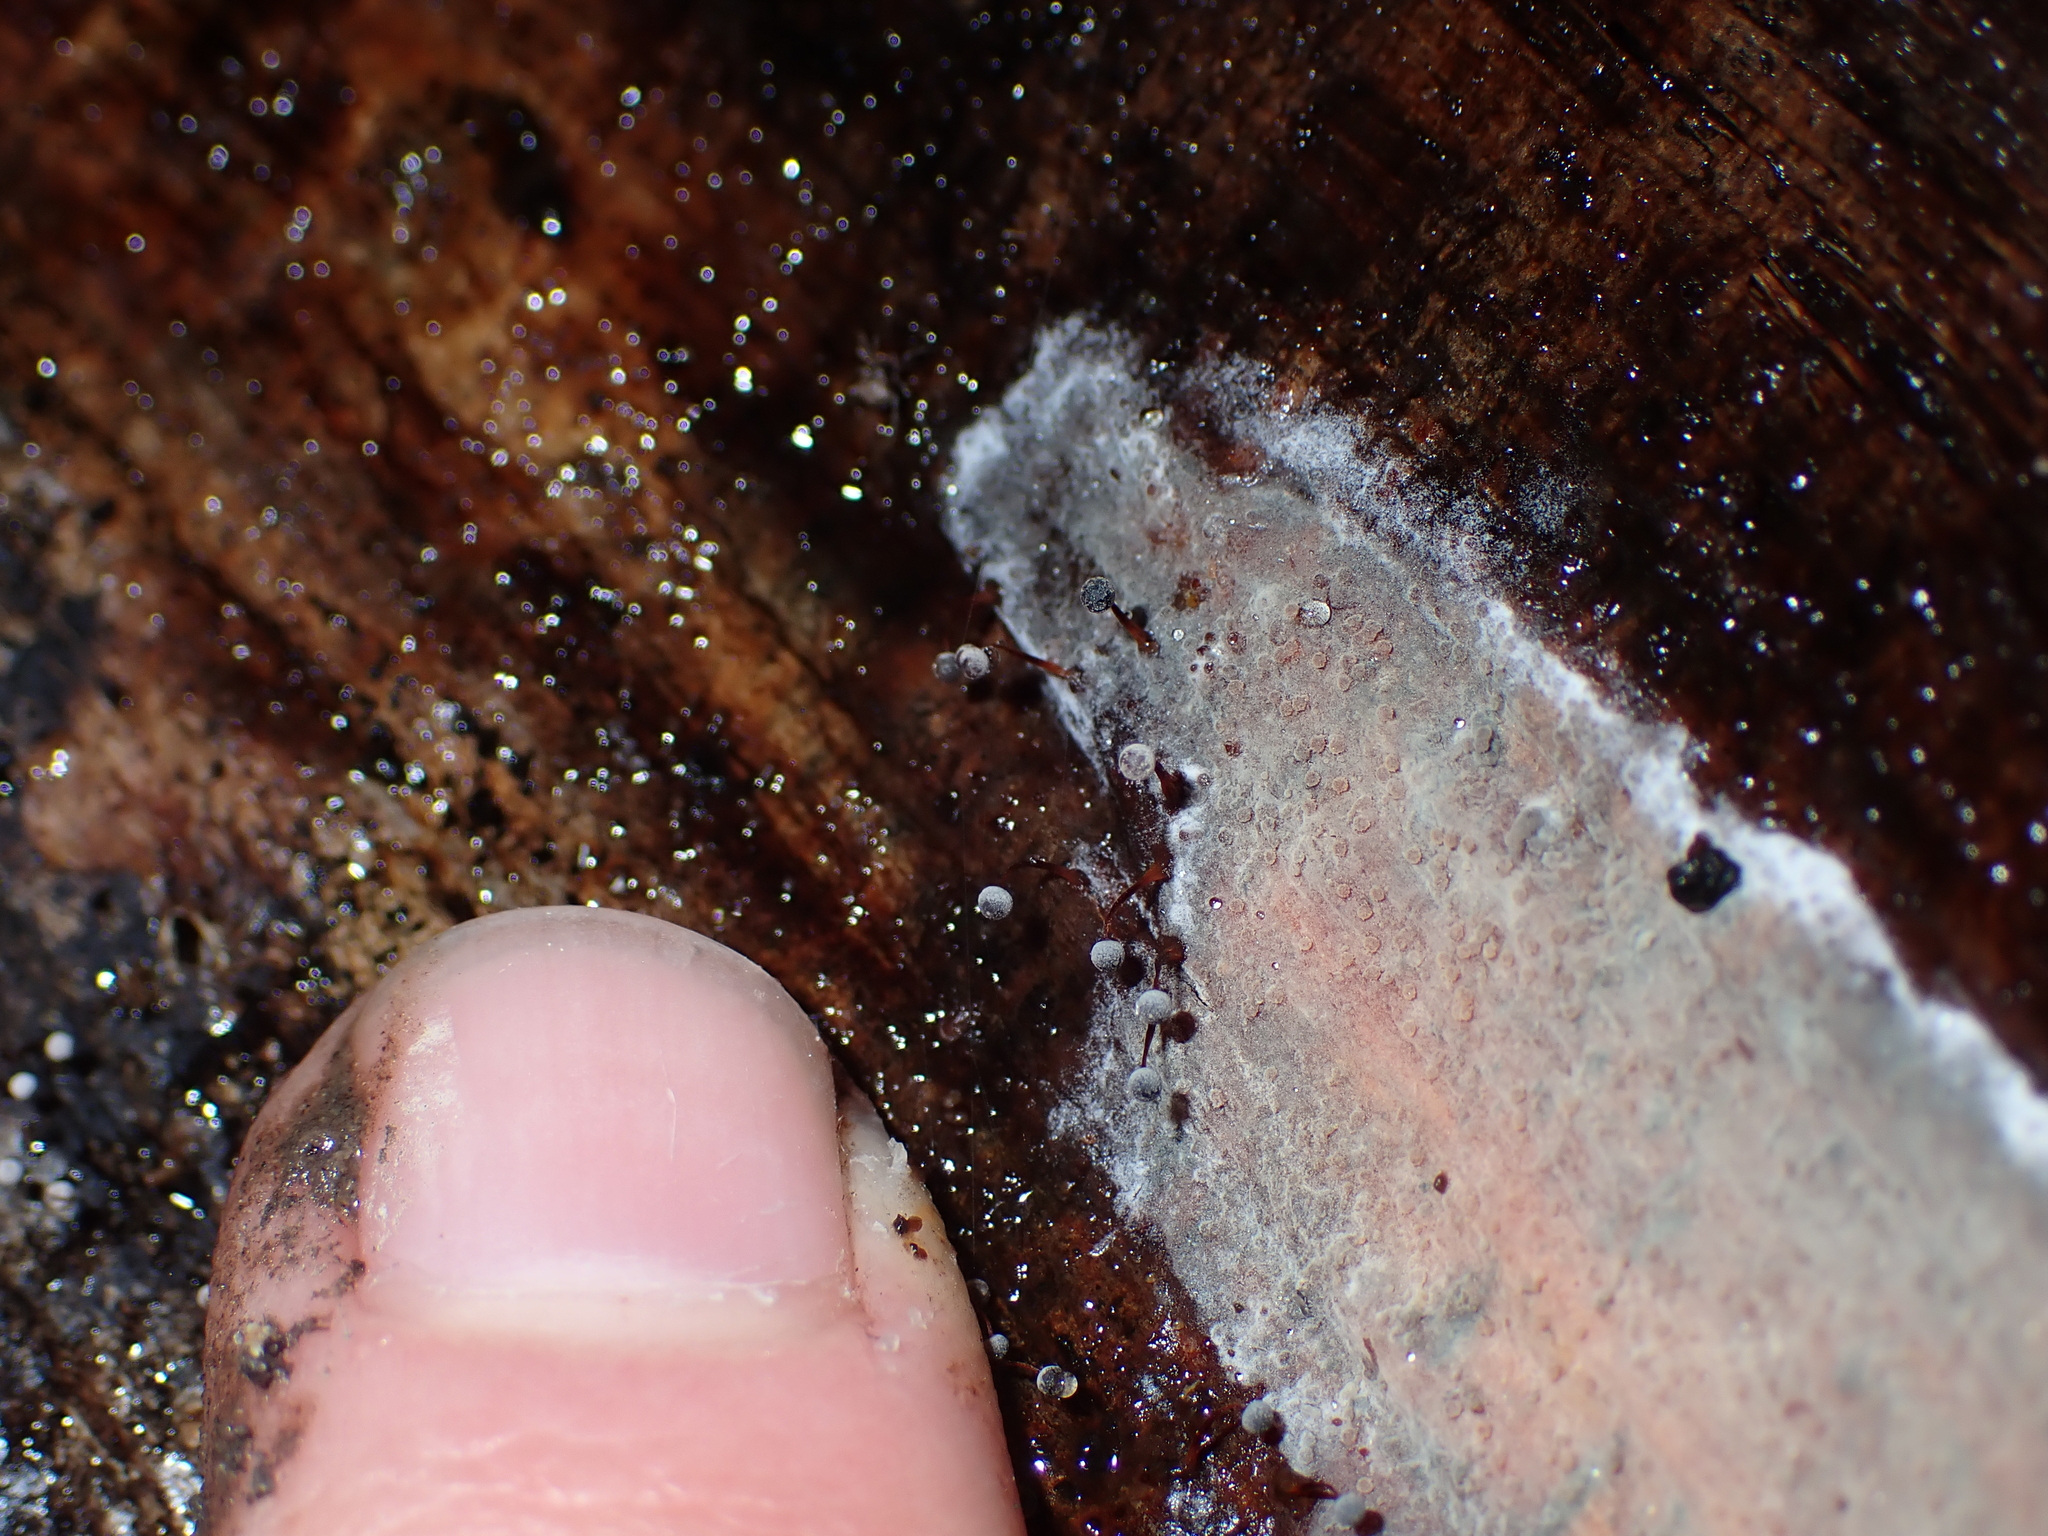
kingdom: Protozoa
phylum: Mycetozoa
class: Myxomycetes
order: Physarales
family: Physaraceae
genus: Physarum
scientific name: Physarum pusillum
